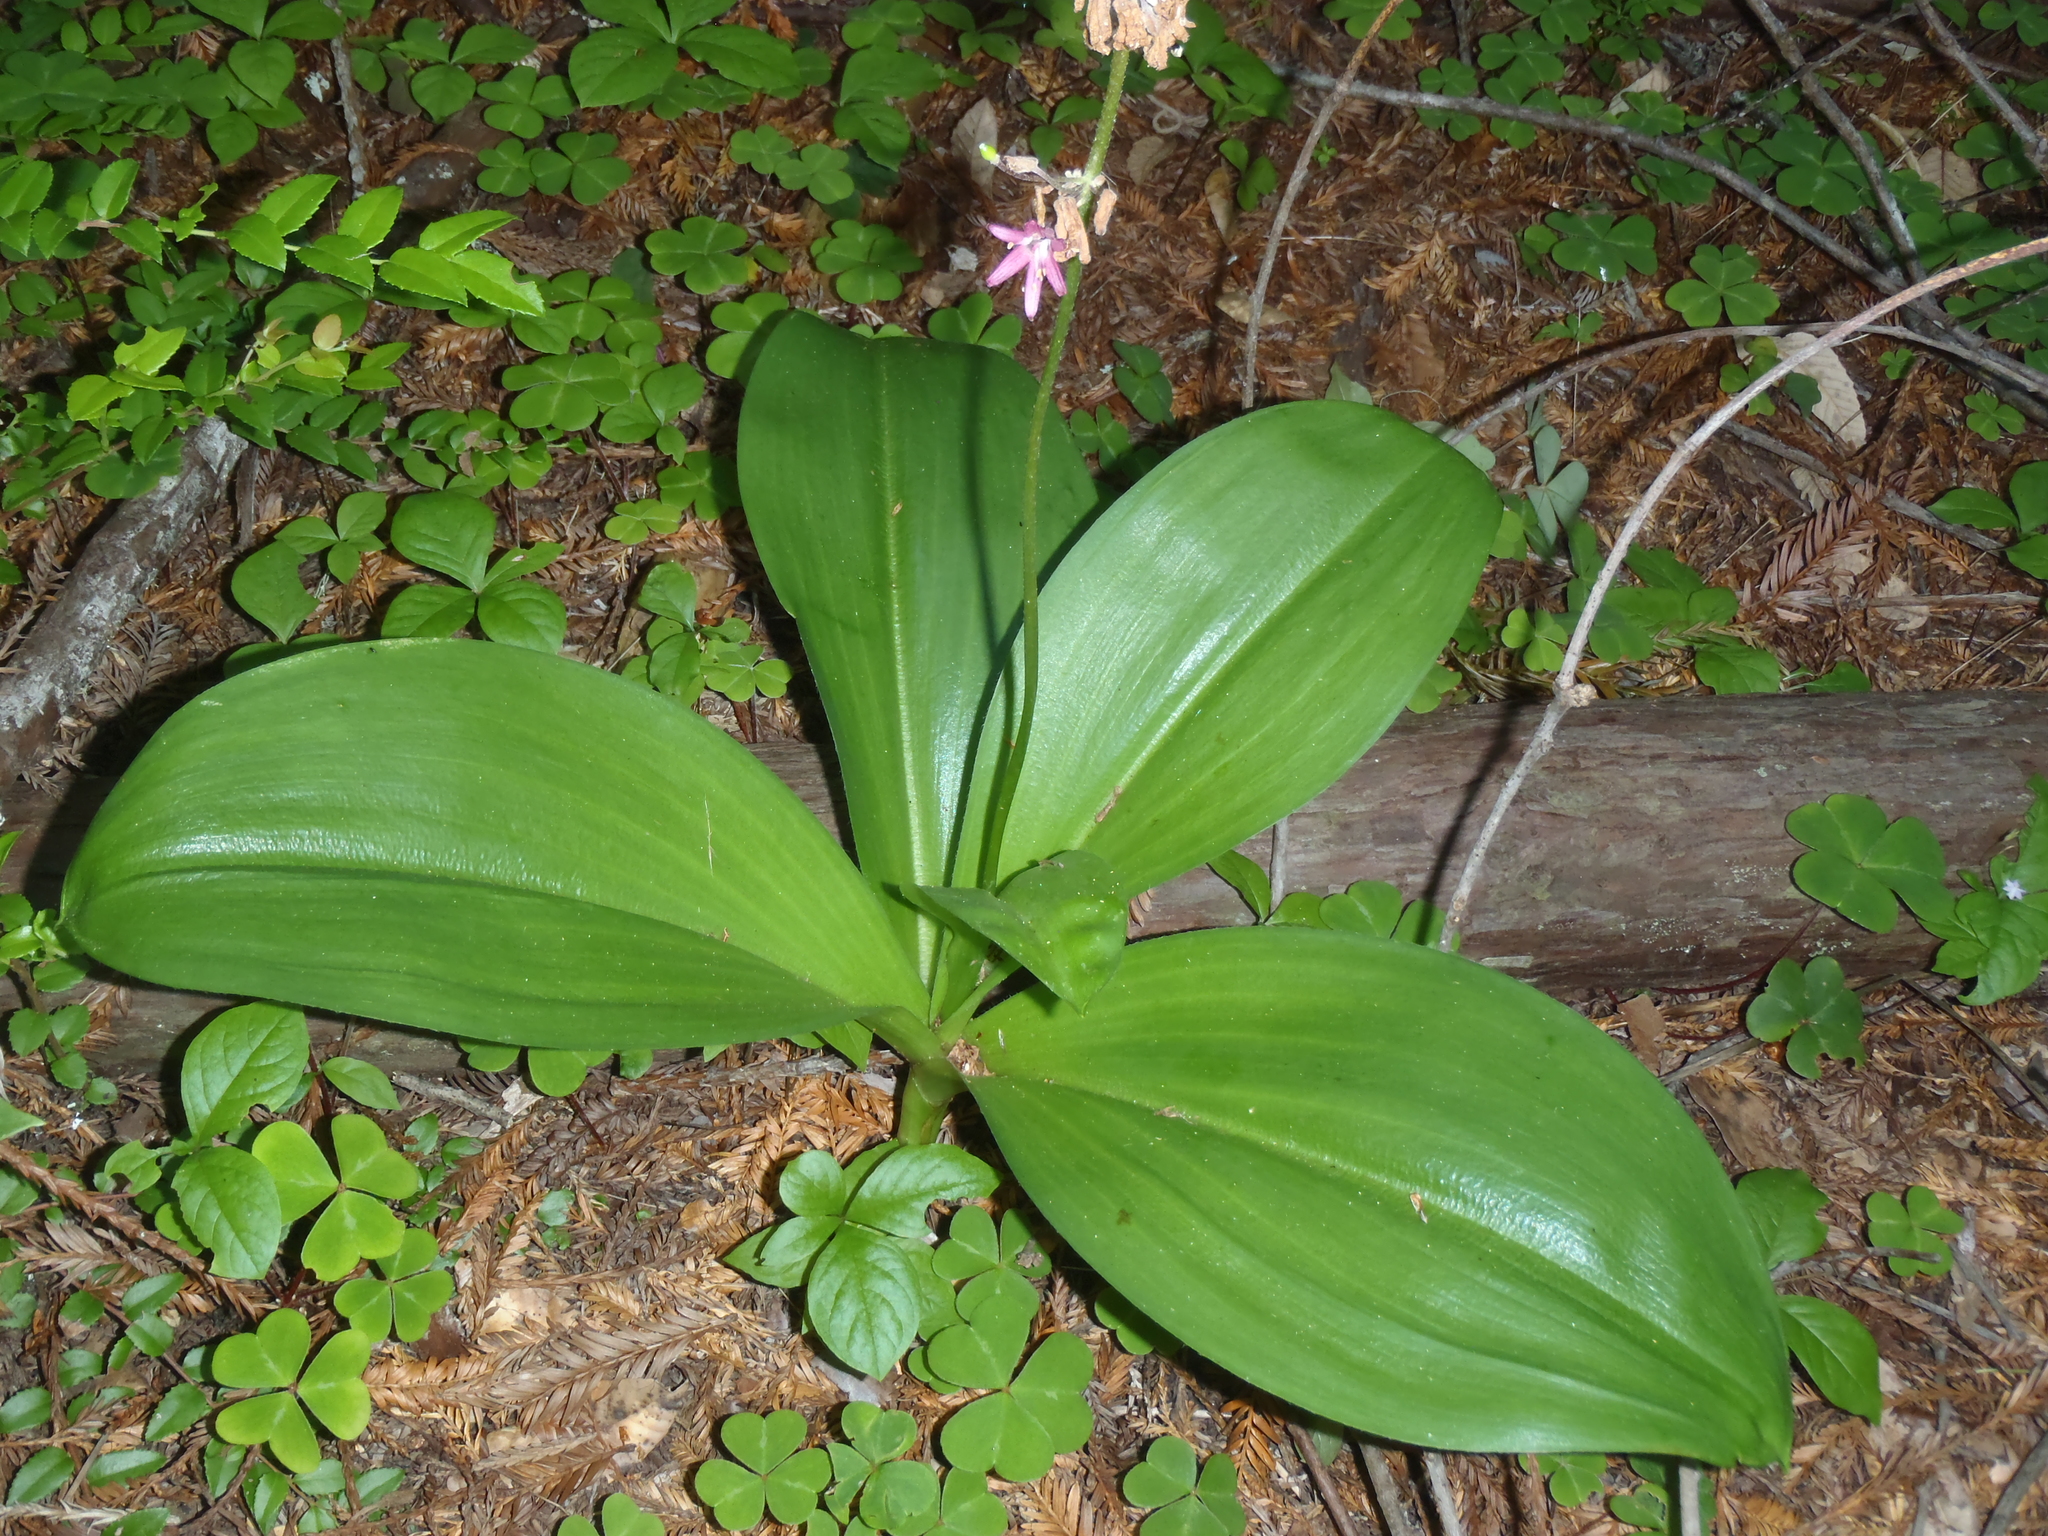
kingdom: Plantae
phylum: Tracheophyta
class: Liliopsida
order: Liliales
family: Liliaceae
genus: Clintonia
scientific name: Clintonia andrewsiana
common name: Red clintonia
